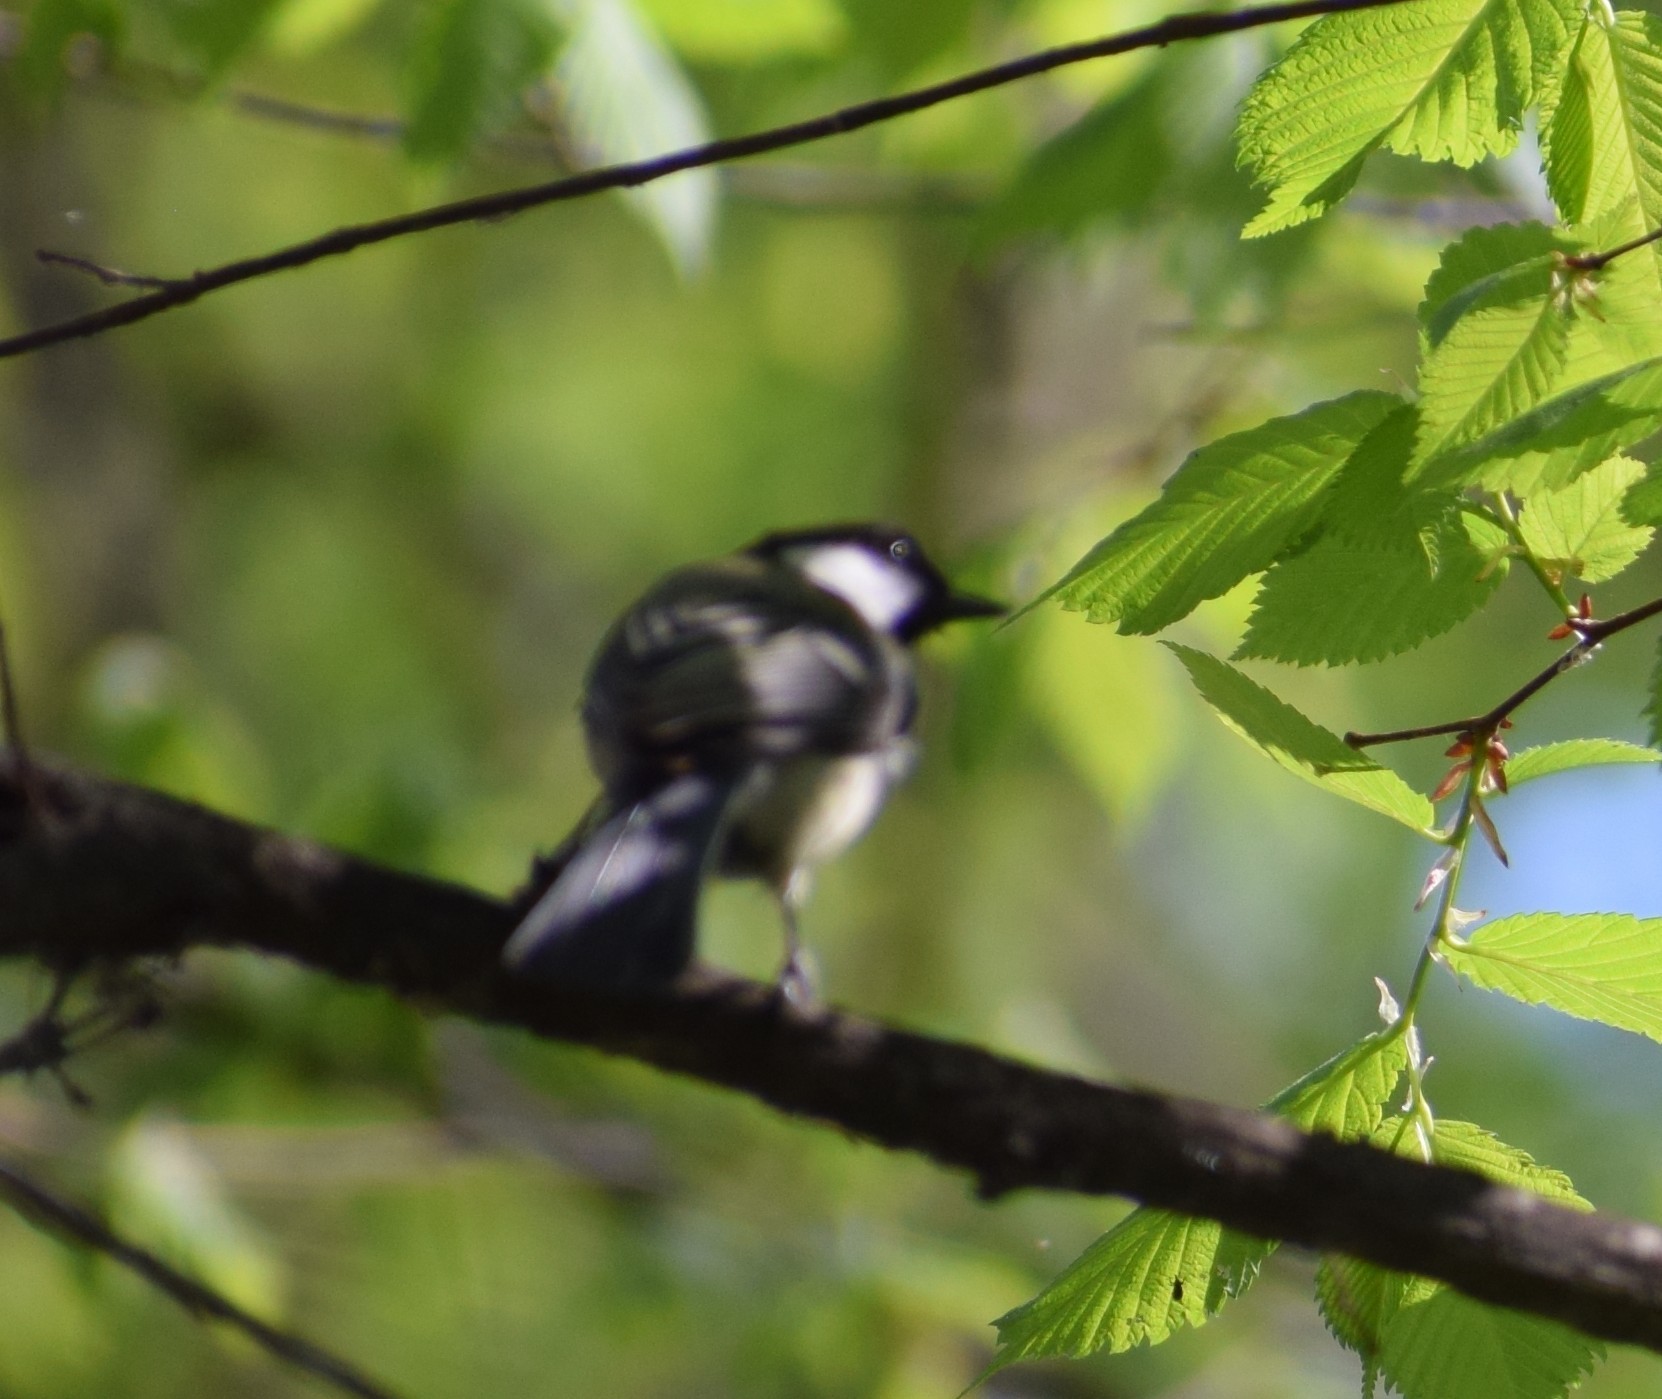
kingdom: Animalia
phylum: Chordata
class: Aves
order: Passeriformes
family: Paridae
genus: Parus
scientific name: Parus major
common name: Great tit
